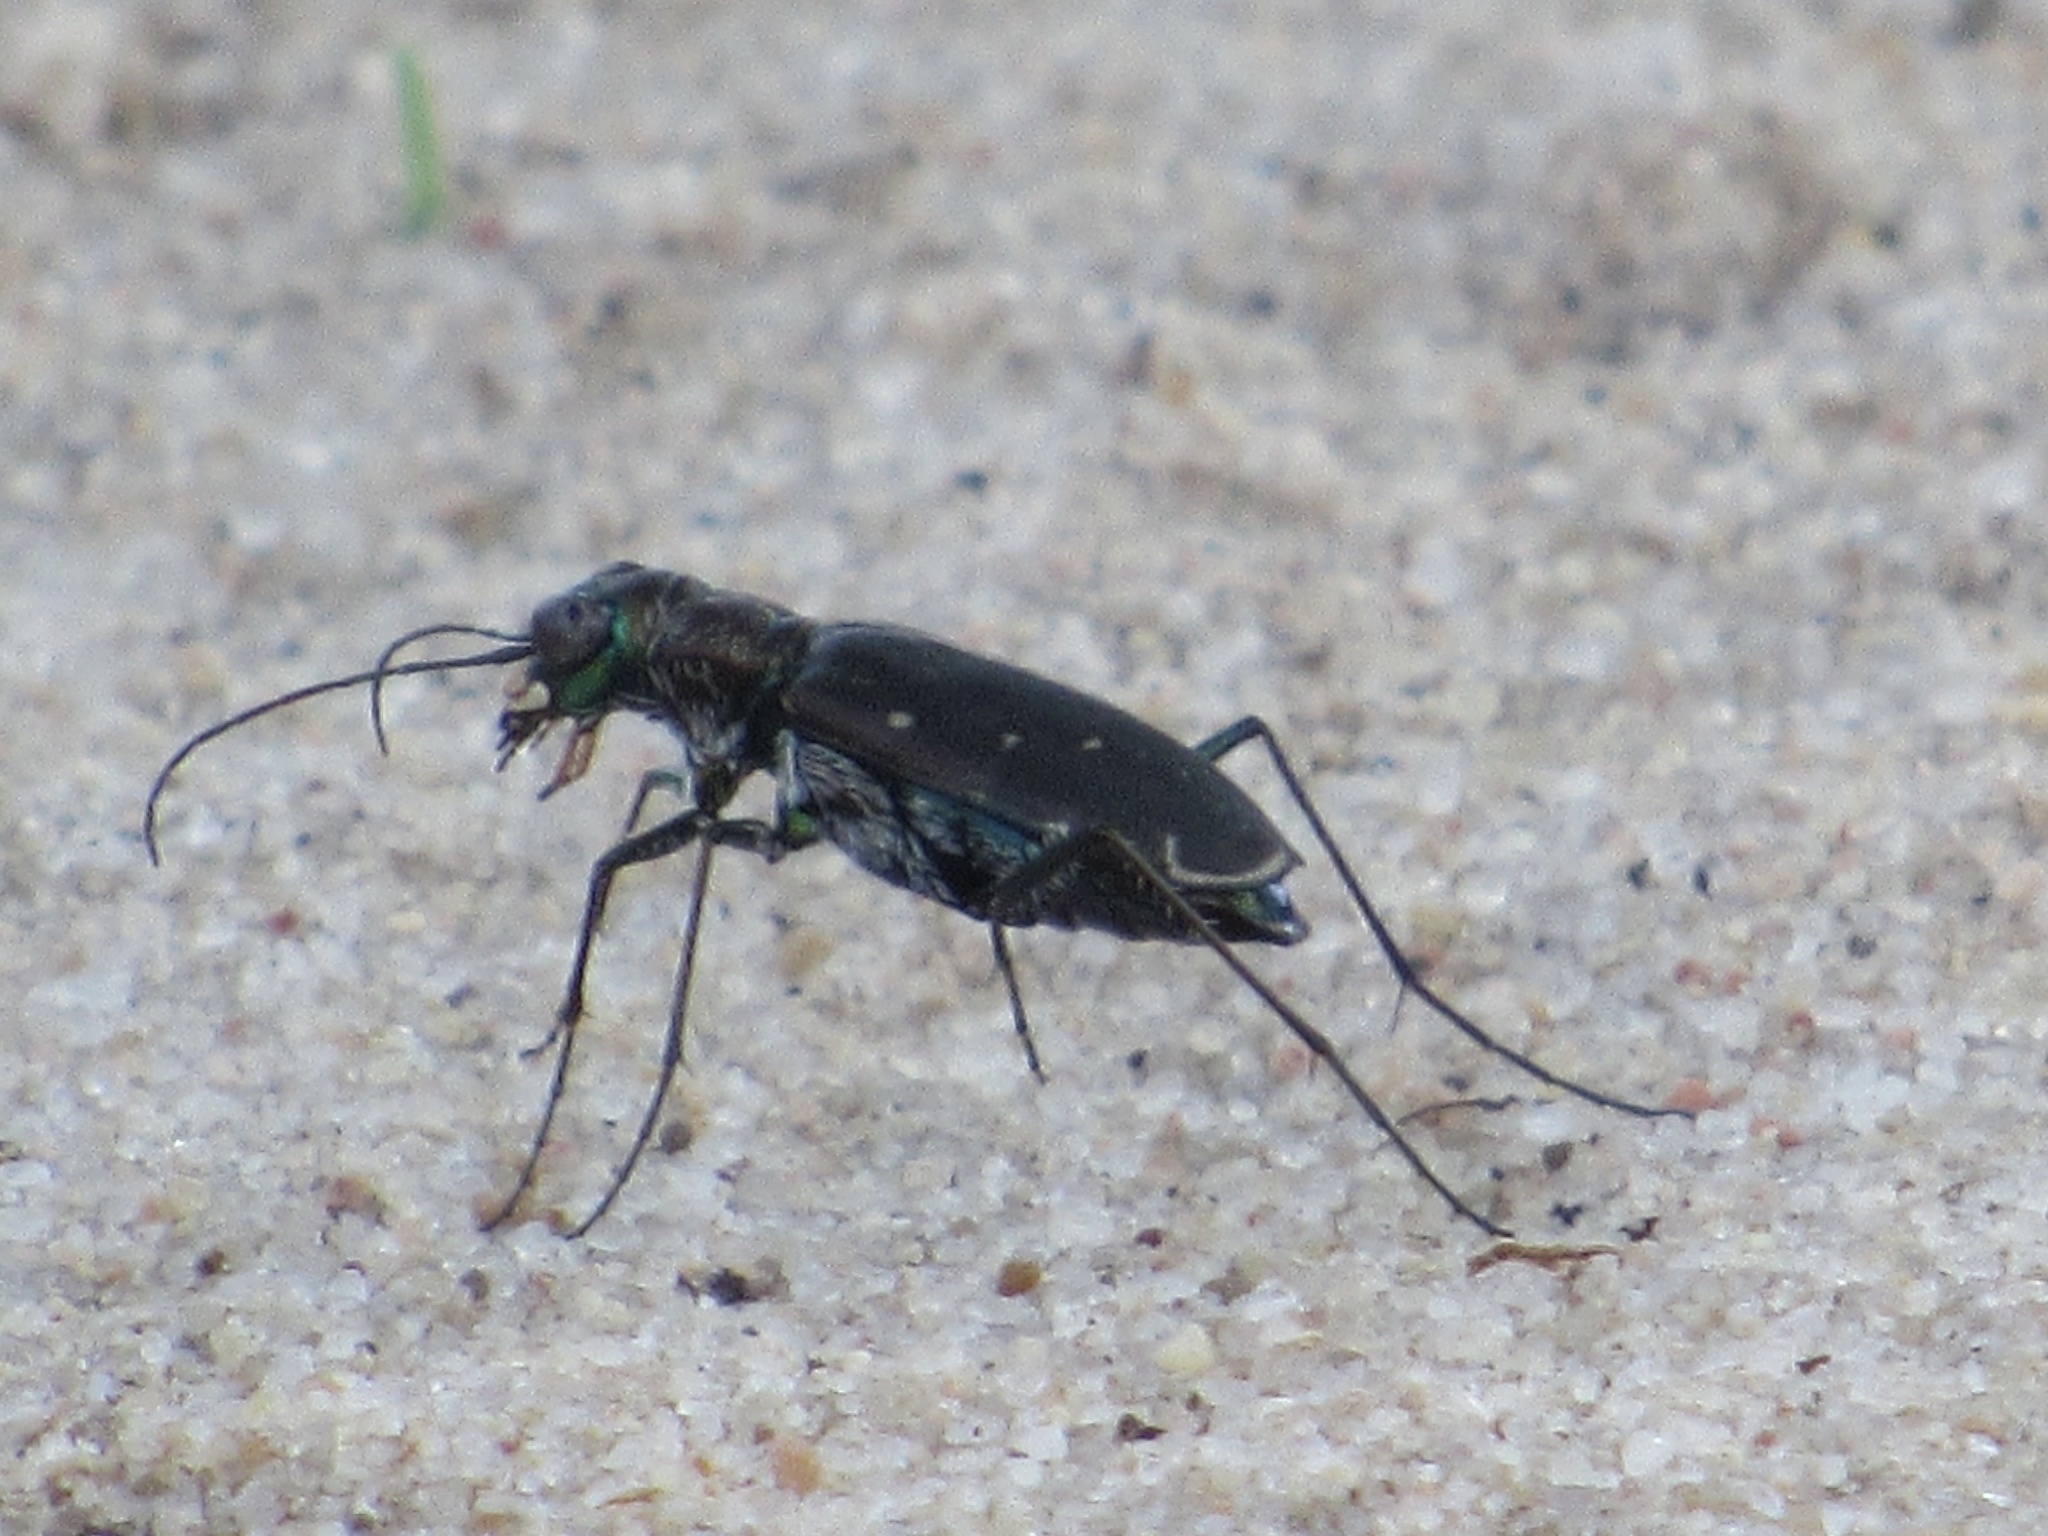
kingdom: Animalia
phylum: Arthropoda
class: Insecta
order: Coleoptera
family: Carabidae
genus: Cicindela
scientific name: Cicindela punctulata
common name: Punctured tiger beetle
